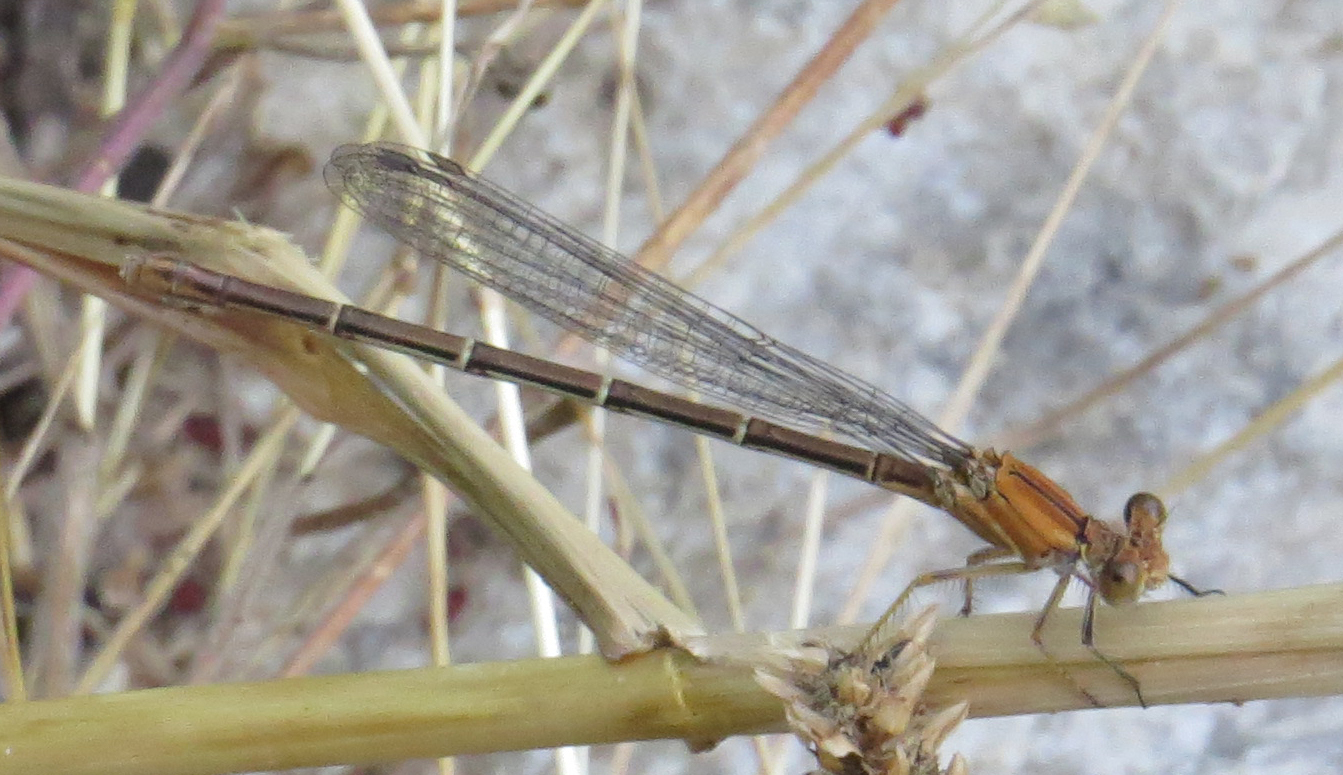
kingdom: Animalia
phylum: Arthropoda
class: Insecta
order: Odonata
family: Coenagrionidae
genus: Argia
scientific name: Argia moesta
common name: Powdered dancer
